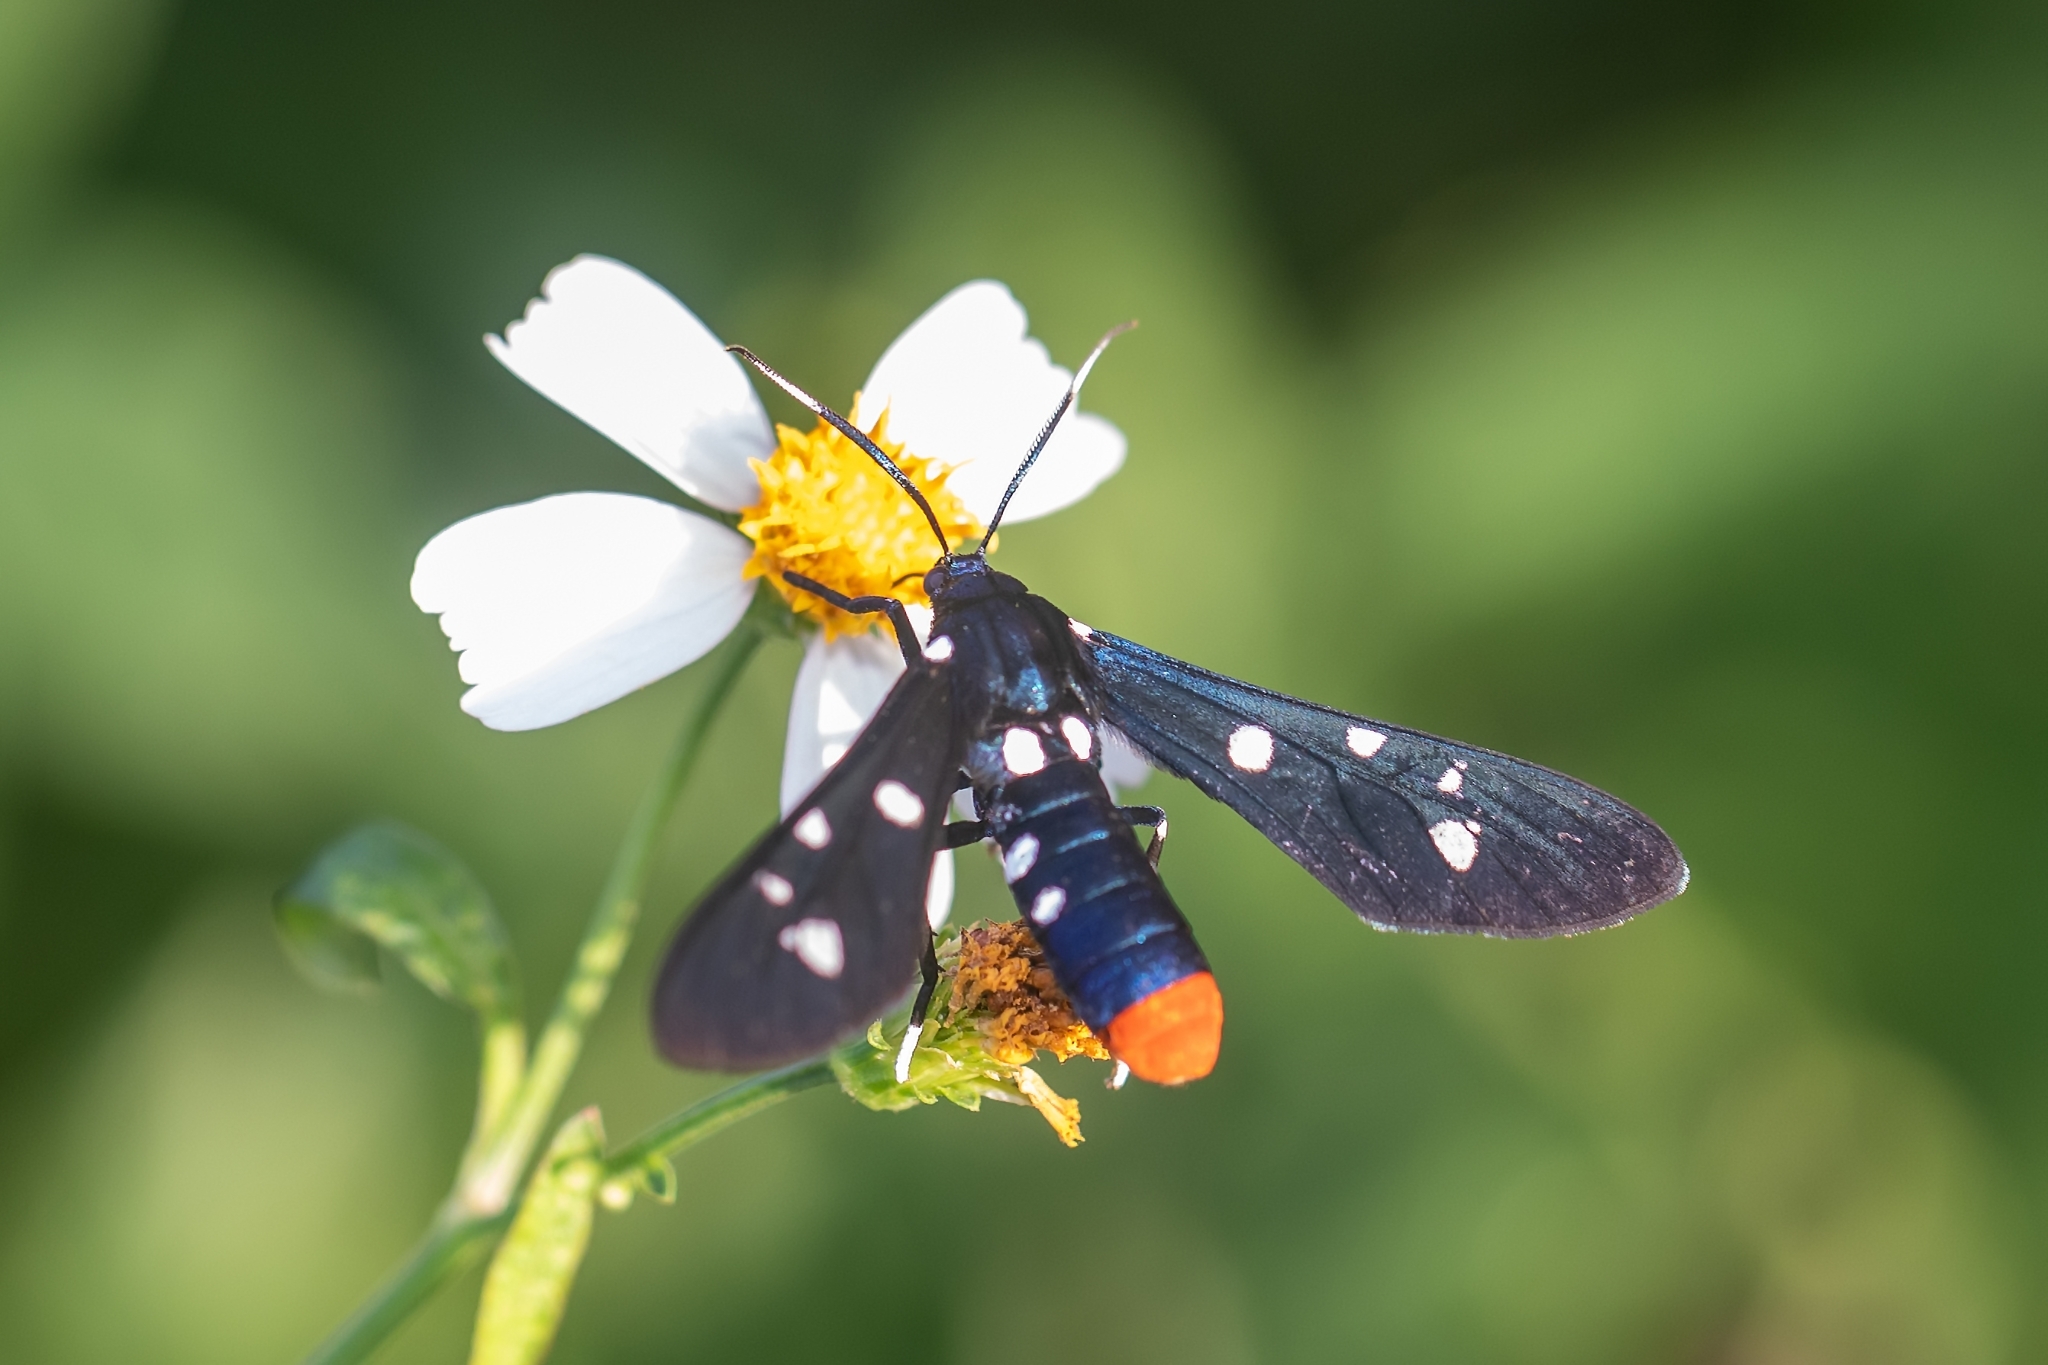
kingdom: Animalia
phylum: Arthropoda
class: Insecta
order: Lepidoptera
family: Erebidae
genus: Syntomeida
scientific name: Syntomeida epilais
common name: Polka-dot wasp moth
